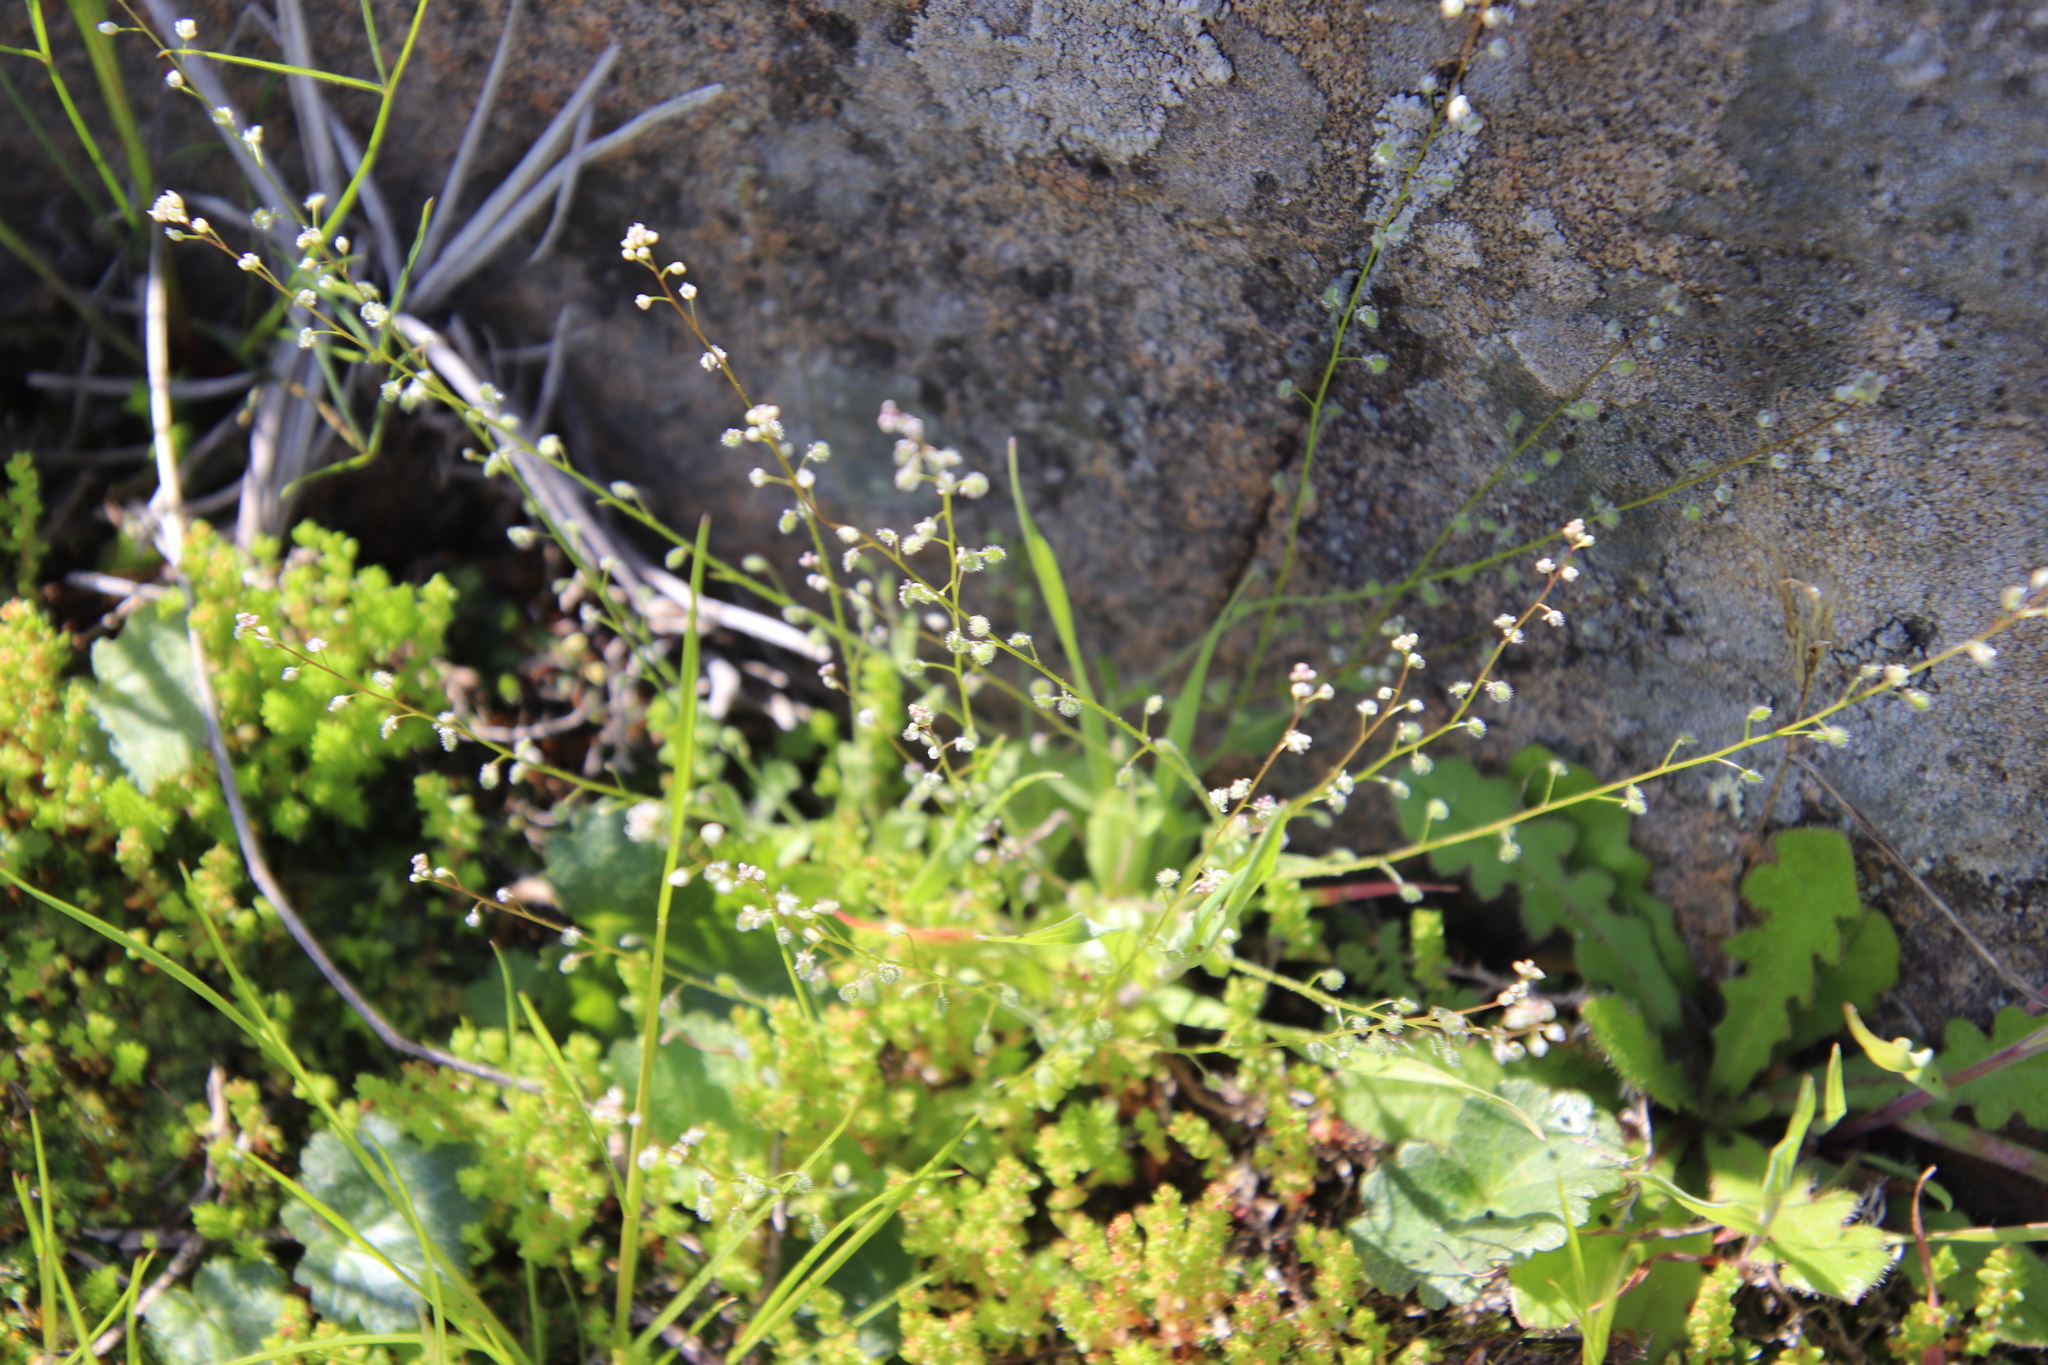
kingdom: Plantae
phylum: Tracheophyta
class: Magnoliopsida
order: Brassicales
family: Brassicaceae
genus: Athysanus
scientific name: Athysanus pusillus
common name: Common sandweed
